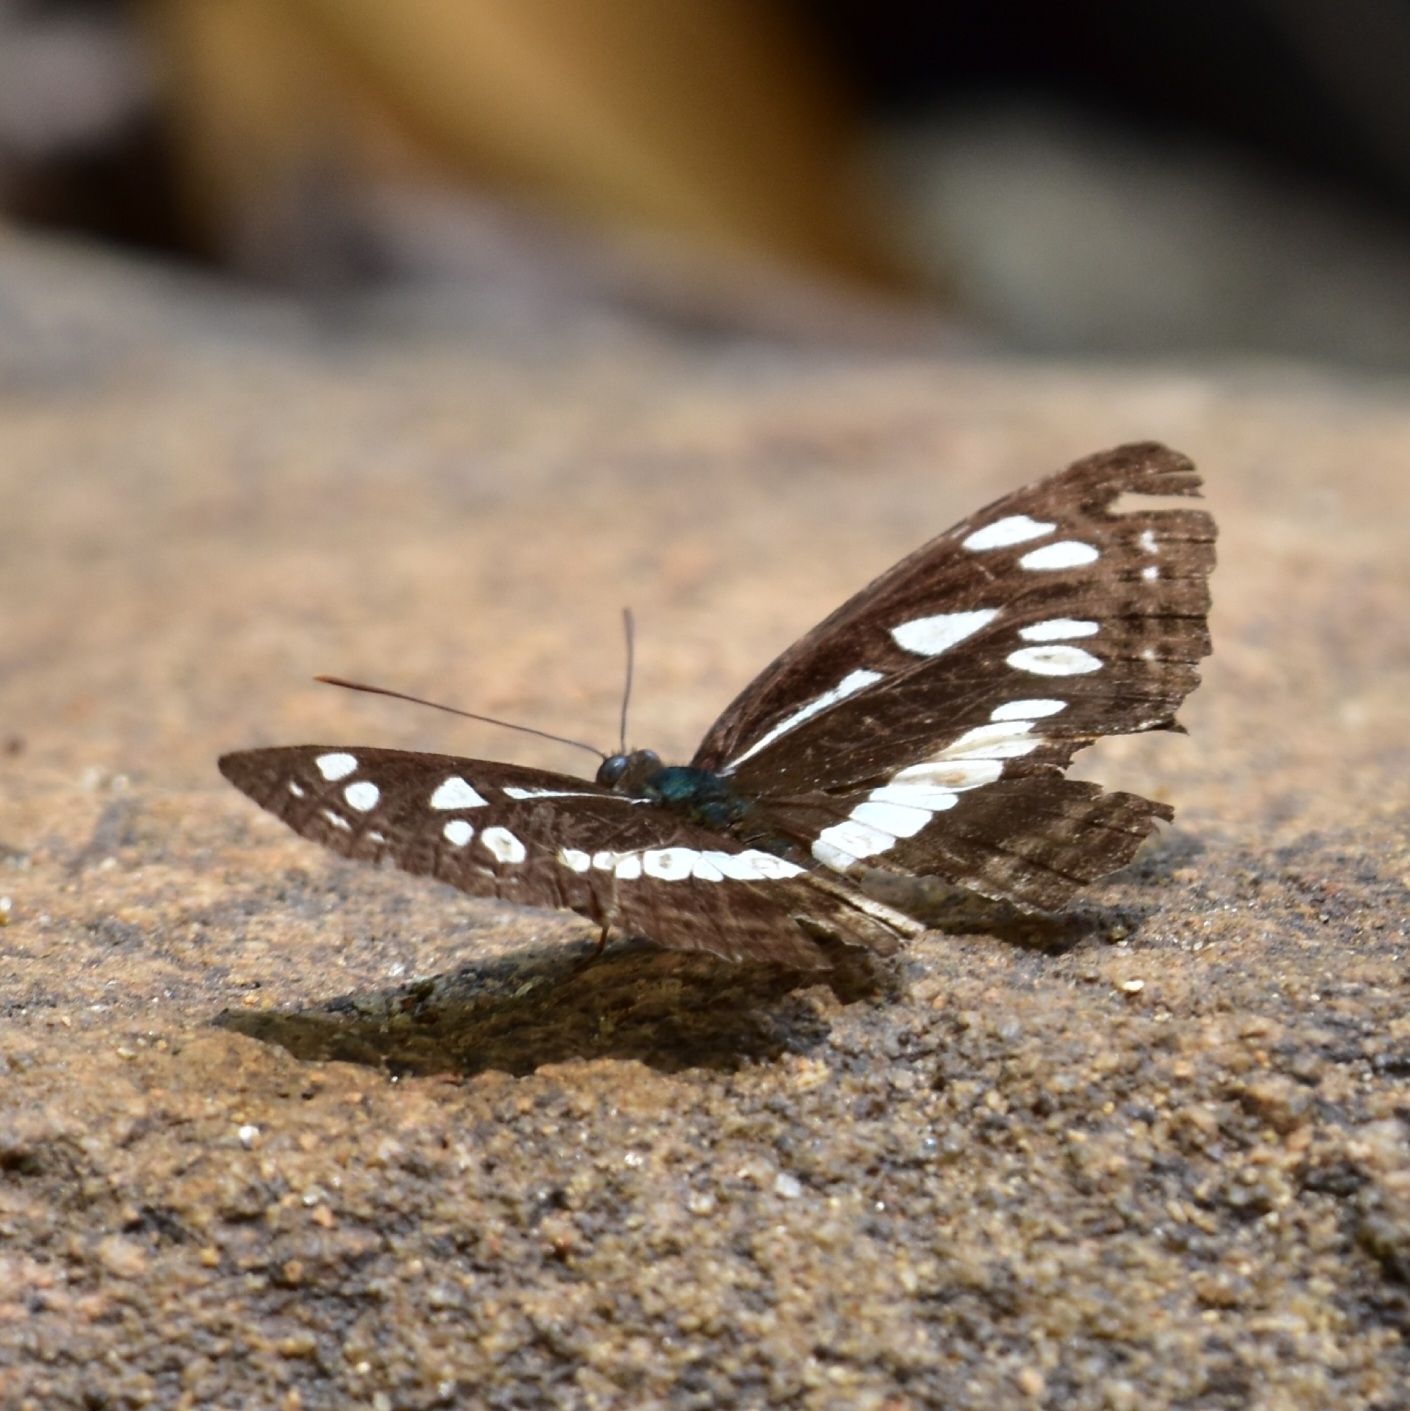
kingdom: Animalia
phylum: Arthropoda
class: Insecta
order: Lepidoptera
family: Nymphalidae
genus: Neptis
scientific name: Neptis jumbah
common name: Chestnut-streaked sailer
